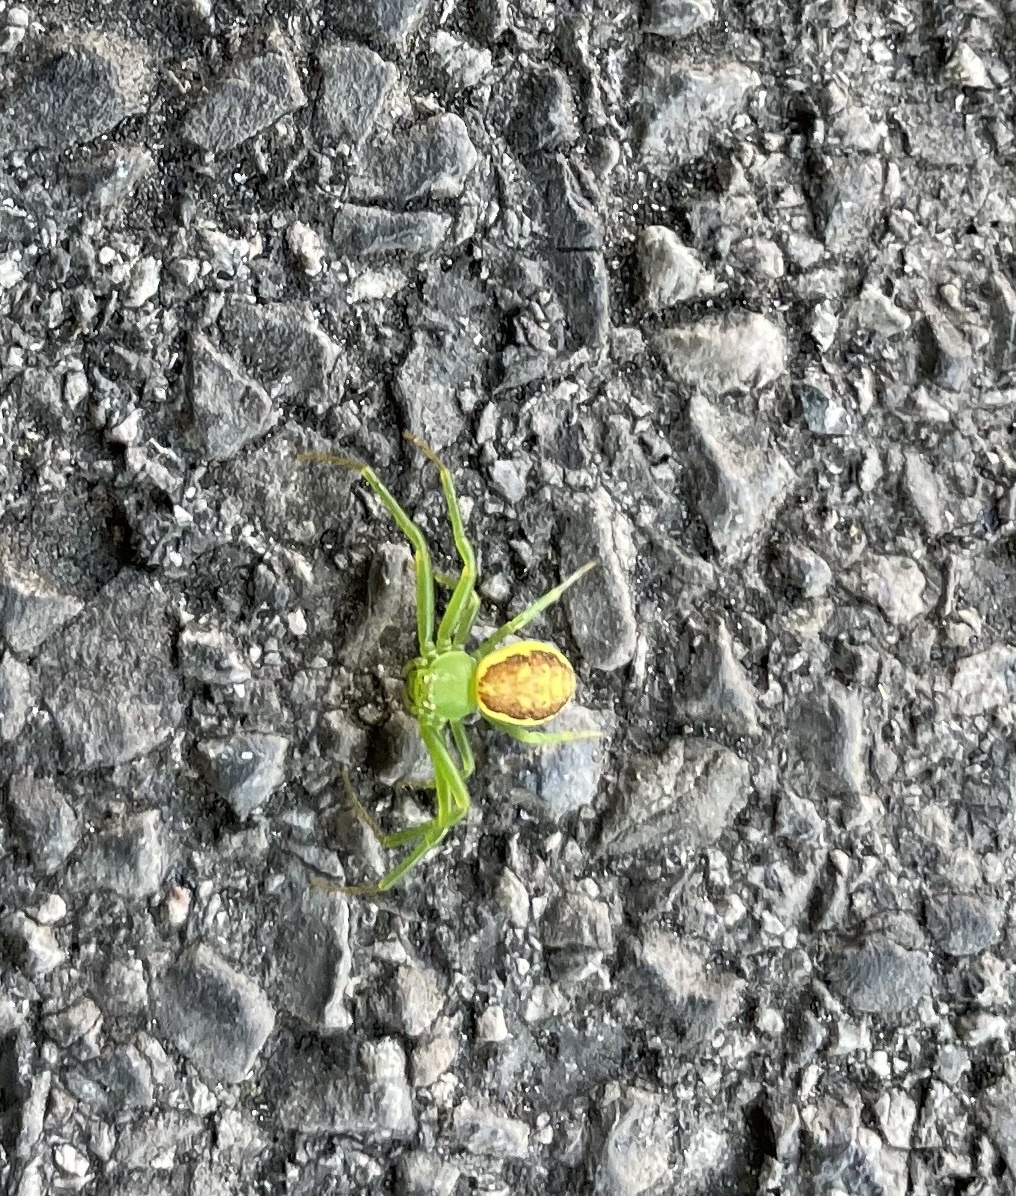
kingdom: Animalia
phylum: Arthropoda
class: Arachnida
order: Araneae
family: Thomisidae
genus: Diaea
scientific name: Diaea dorsata
